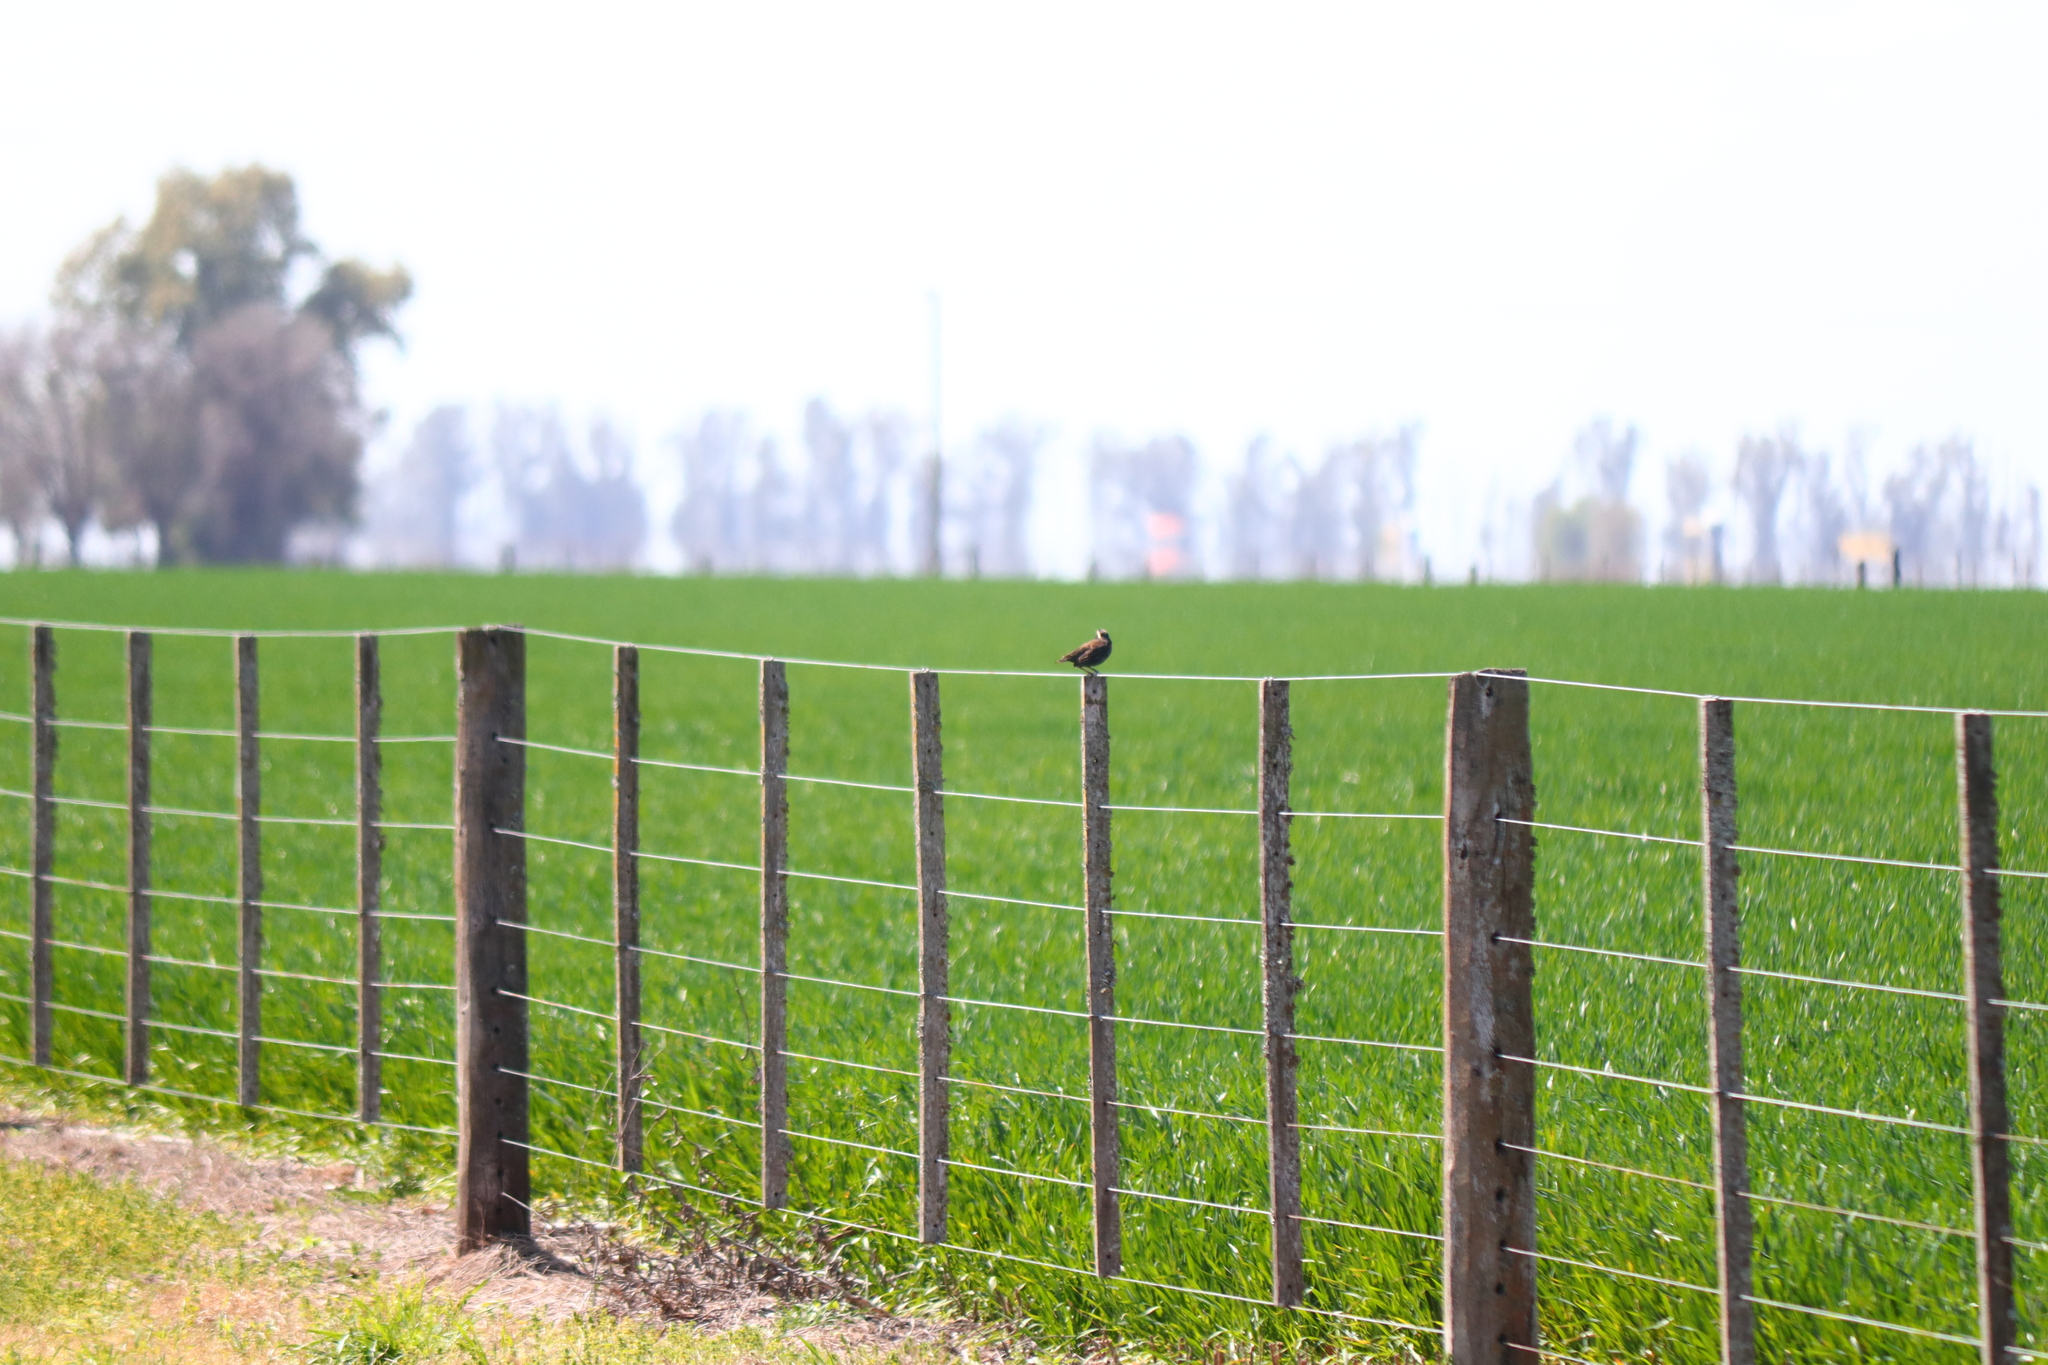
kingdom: Animalia
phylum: Chordata
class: Aves
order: Passeriformes
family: Icteridae
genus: Sturnella
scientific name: Sturnella superciliaris
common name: White-browed blackbird
